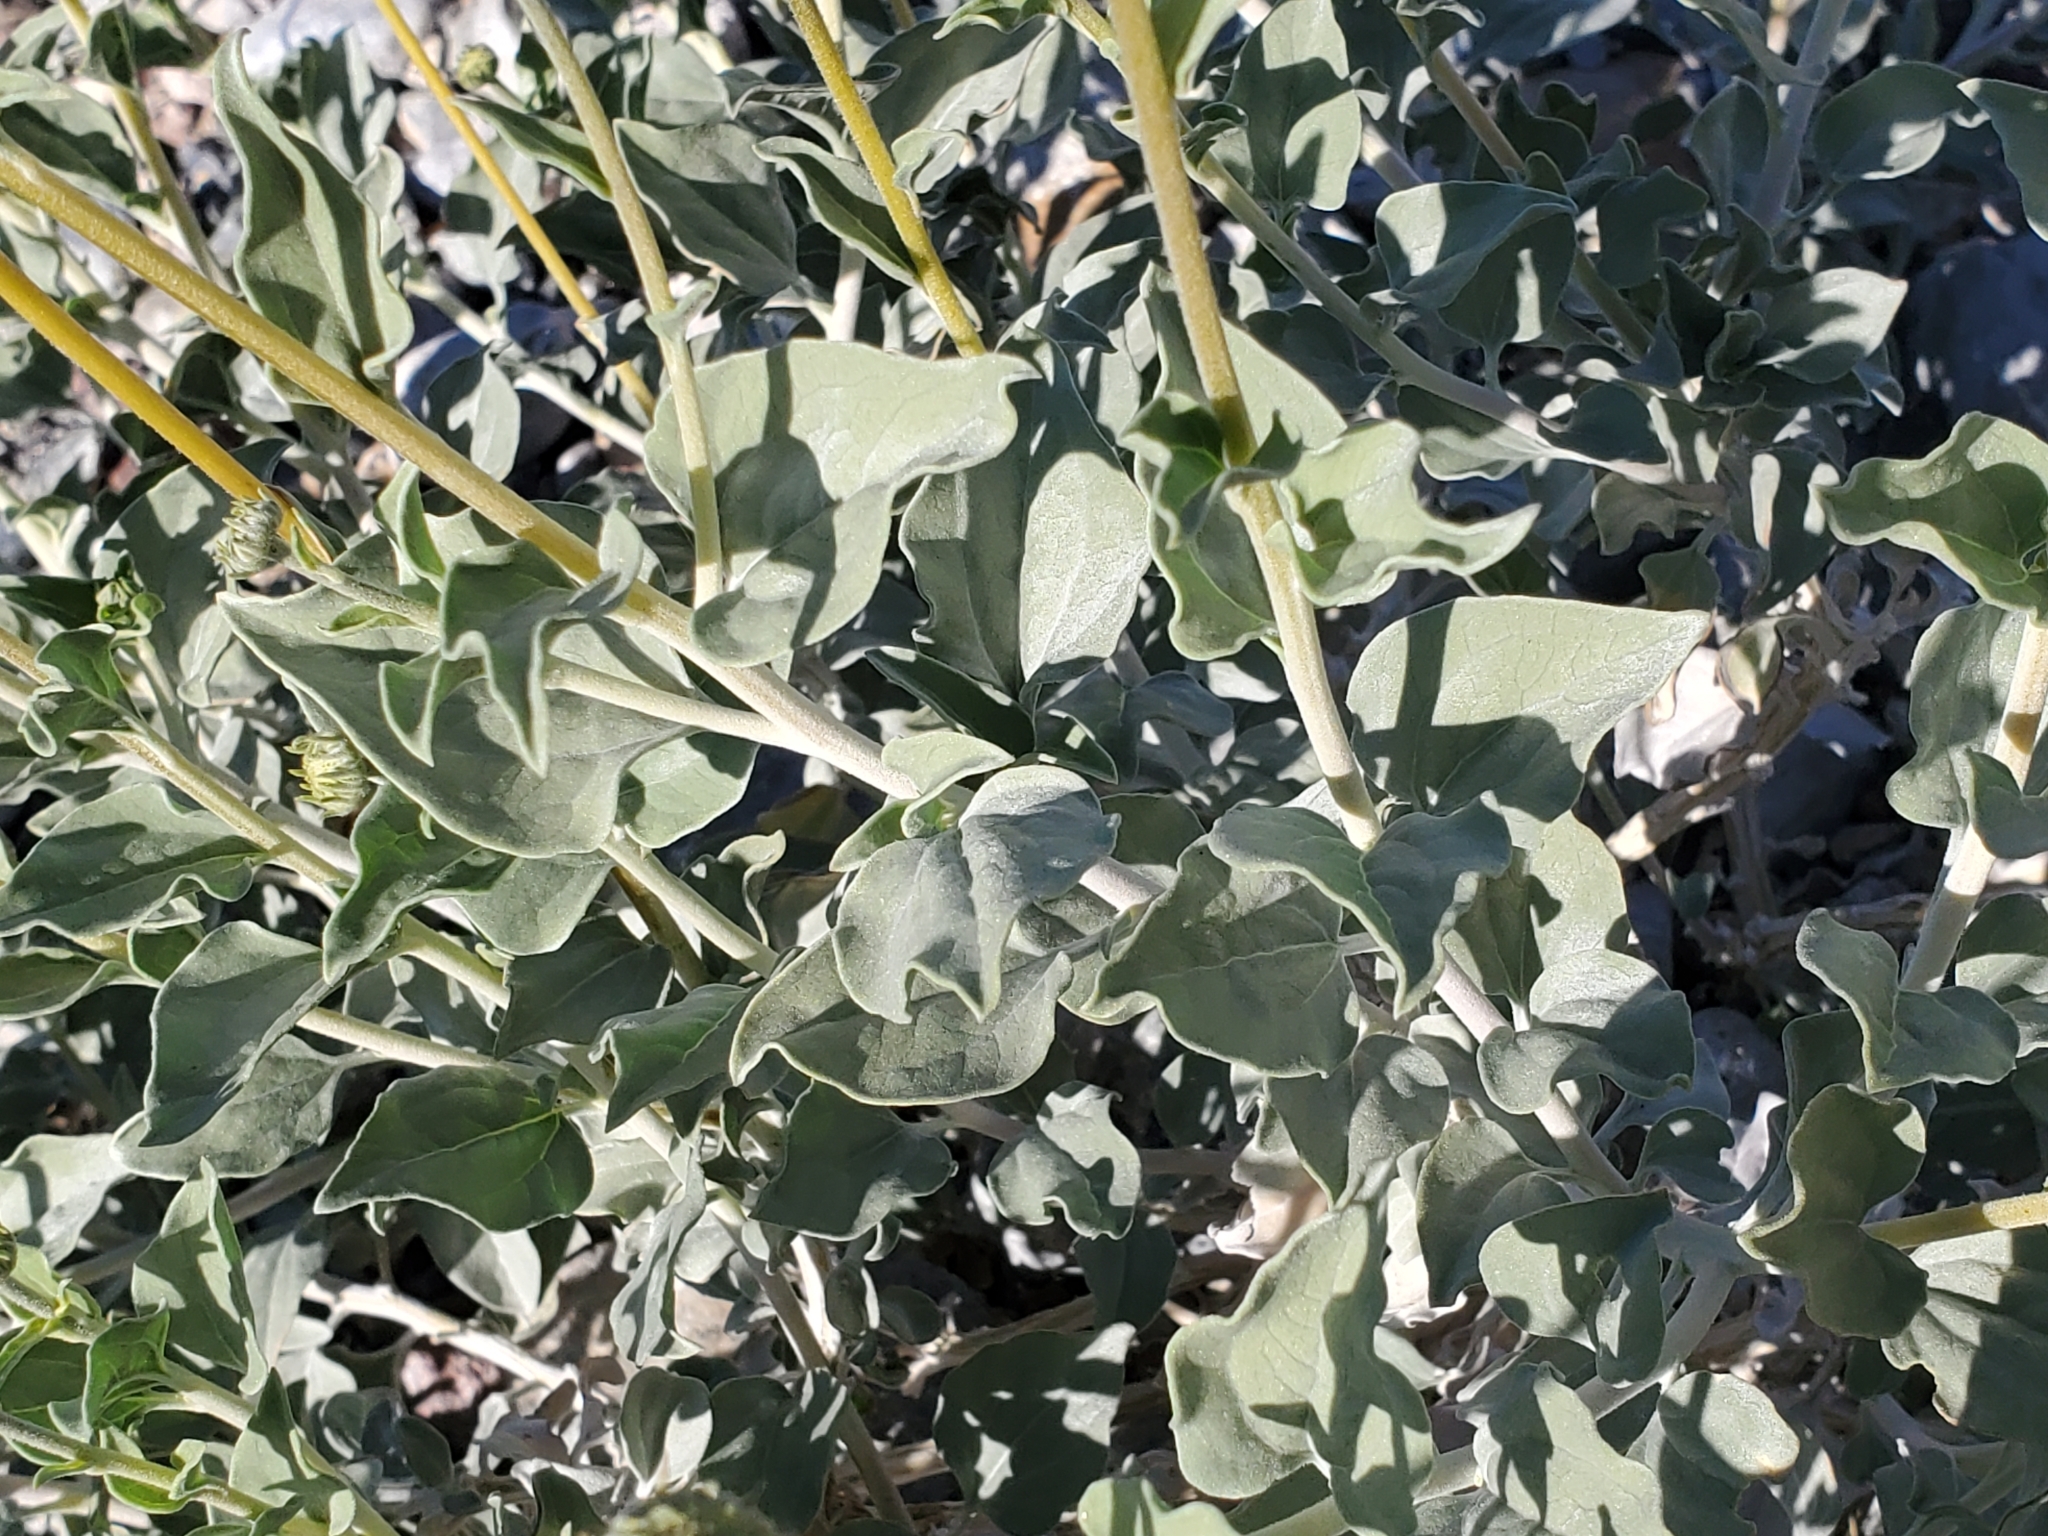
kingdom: Plantae
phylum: Tracheophyta
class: Magnoliopsida
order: Asterales
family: Asteraceae
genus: Encelia
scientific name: Encelia actoni
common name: Acton encelia
